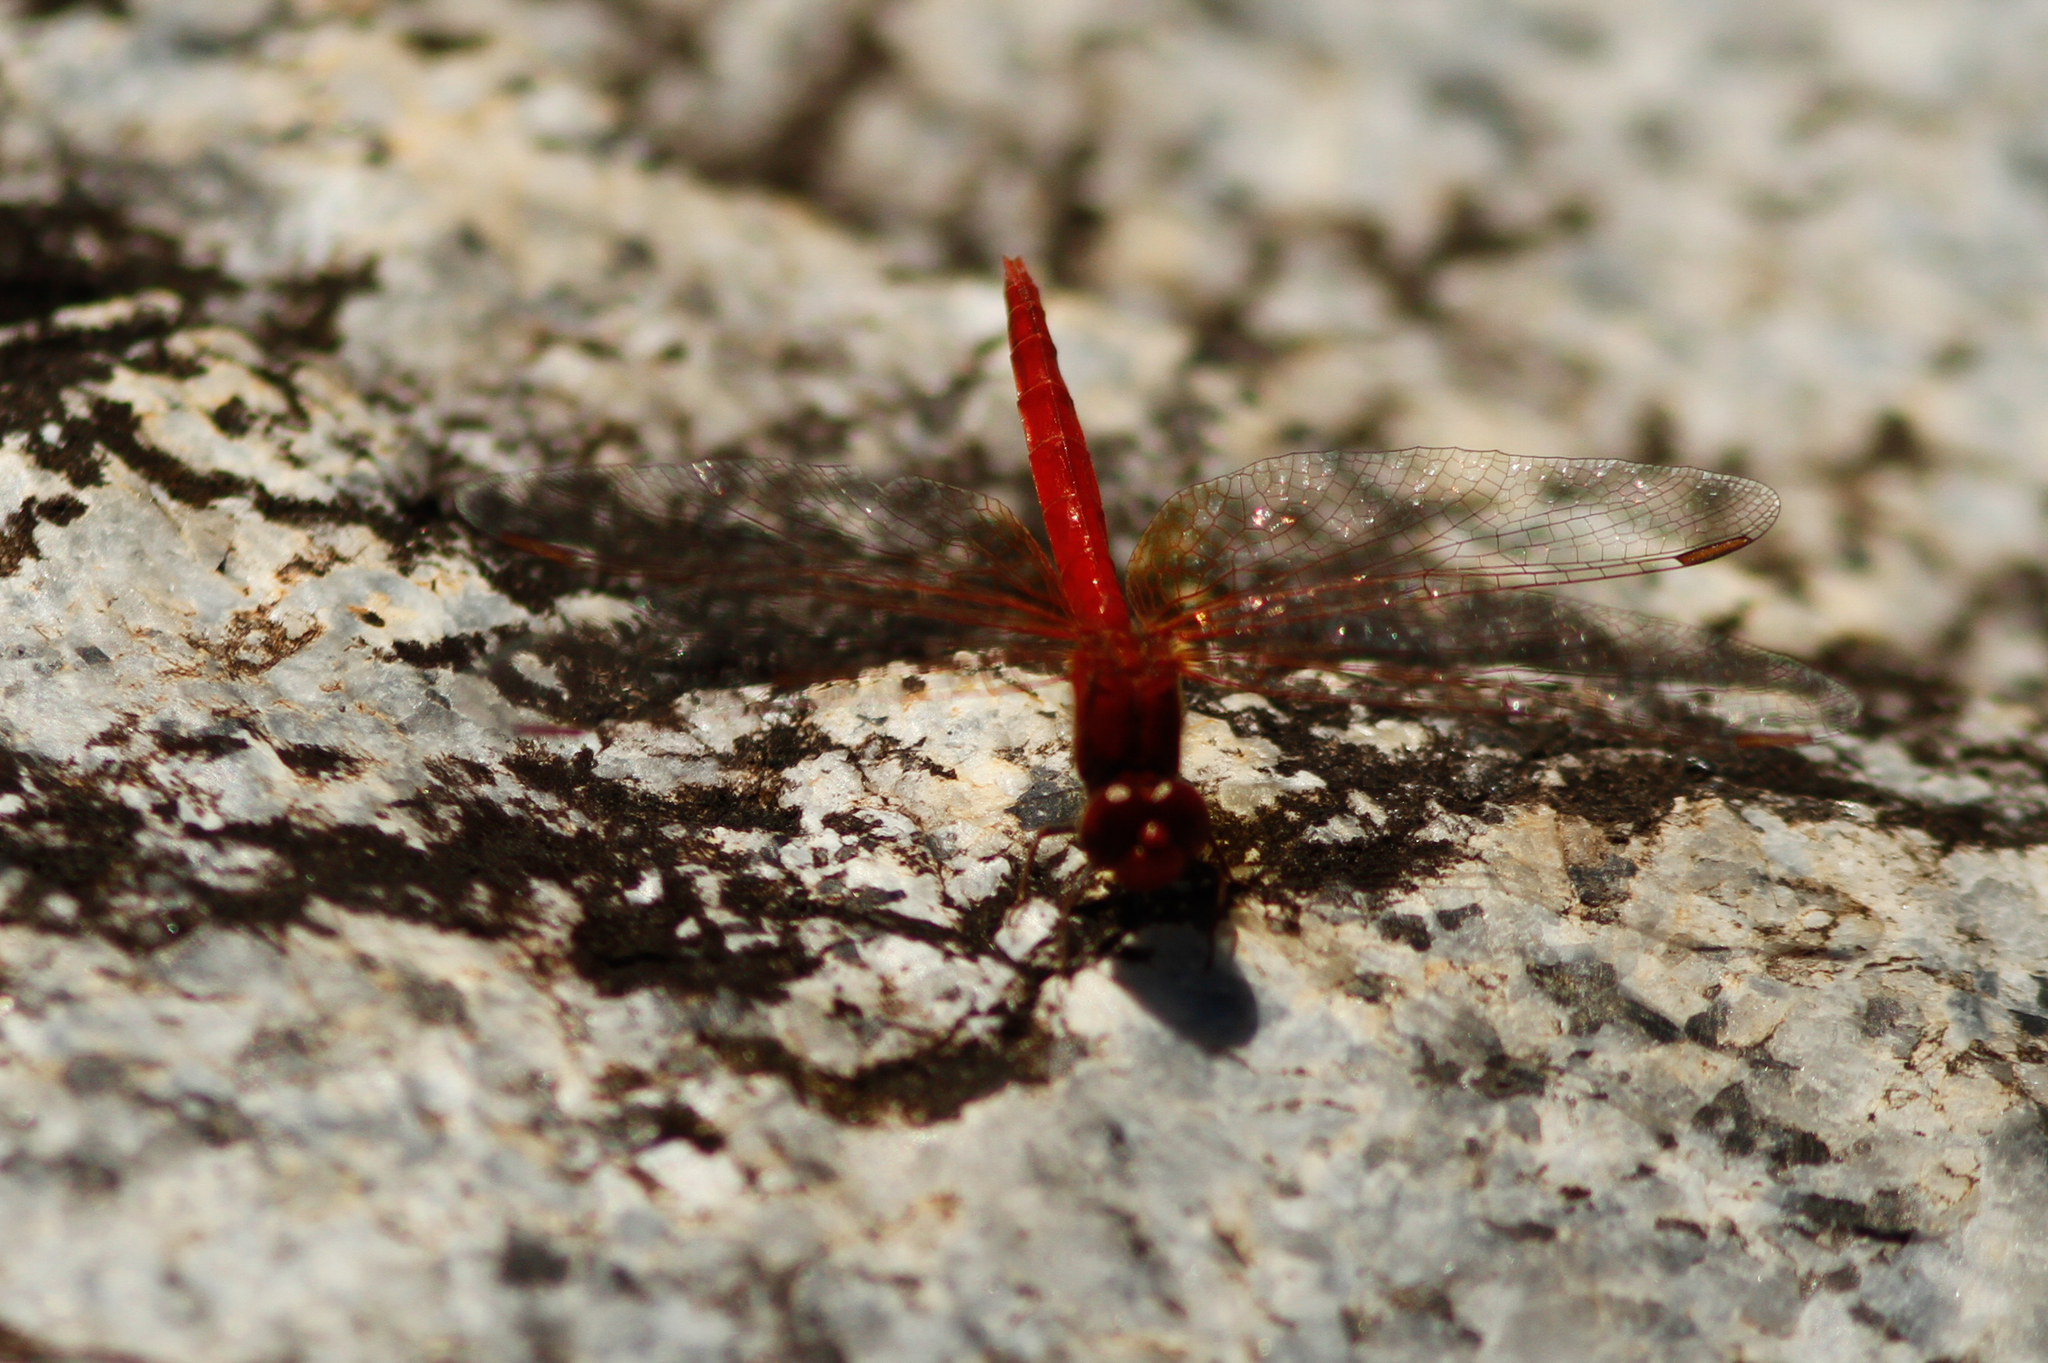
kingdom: Animalia
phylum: Arthropoda
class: Insecta
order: Odonata
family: Libellulidae
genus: Diplacodes
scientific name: Diplacodes haematodes
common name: Scarlet percher
